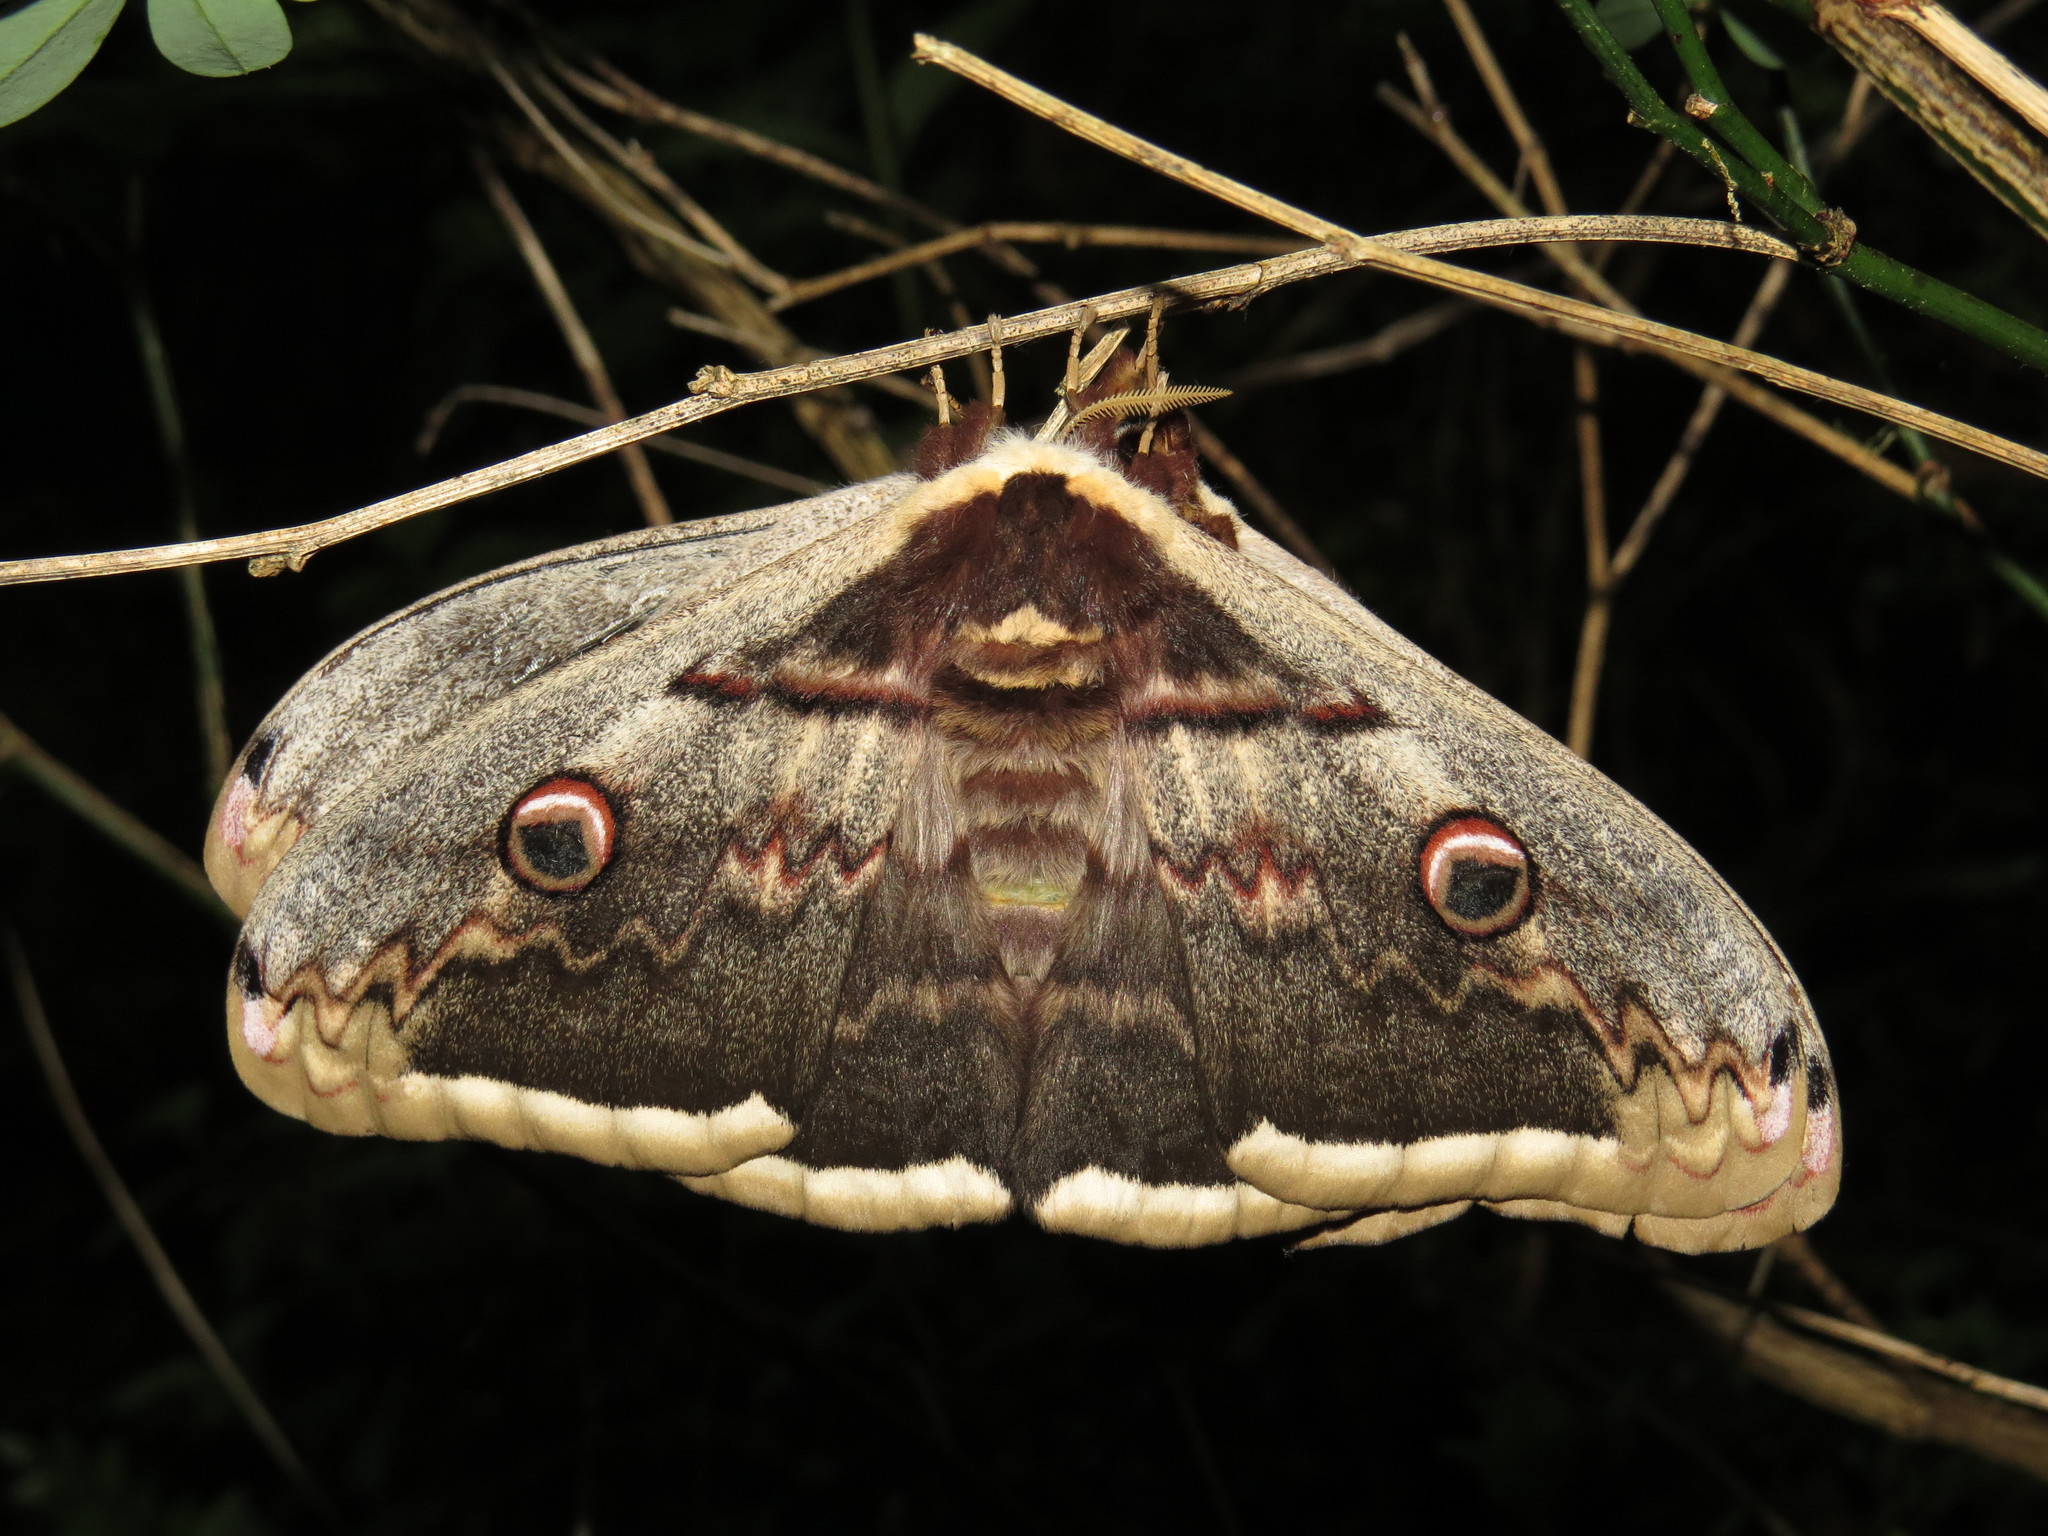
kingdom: Animalia
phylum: Arthropoda
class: Insecta
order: Lepidoptera
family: Saturniidae
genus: Saturnia
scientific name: Saturnia pyri
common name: Great peacock moth
